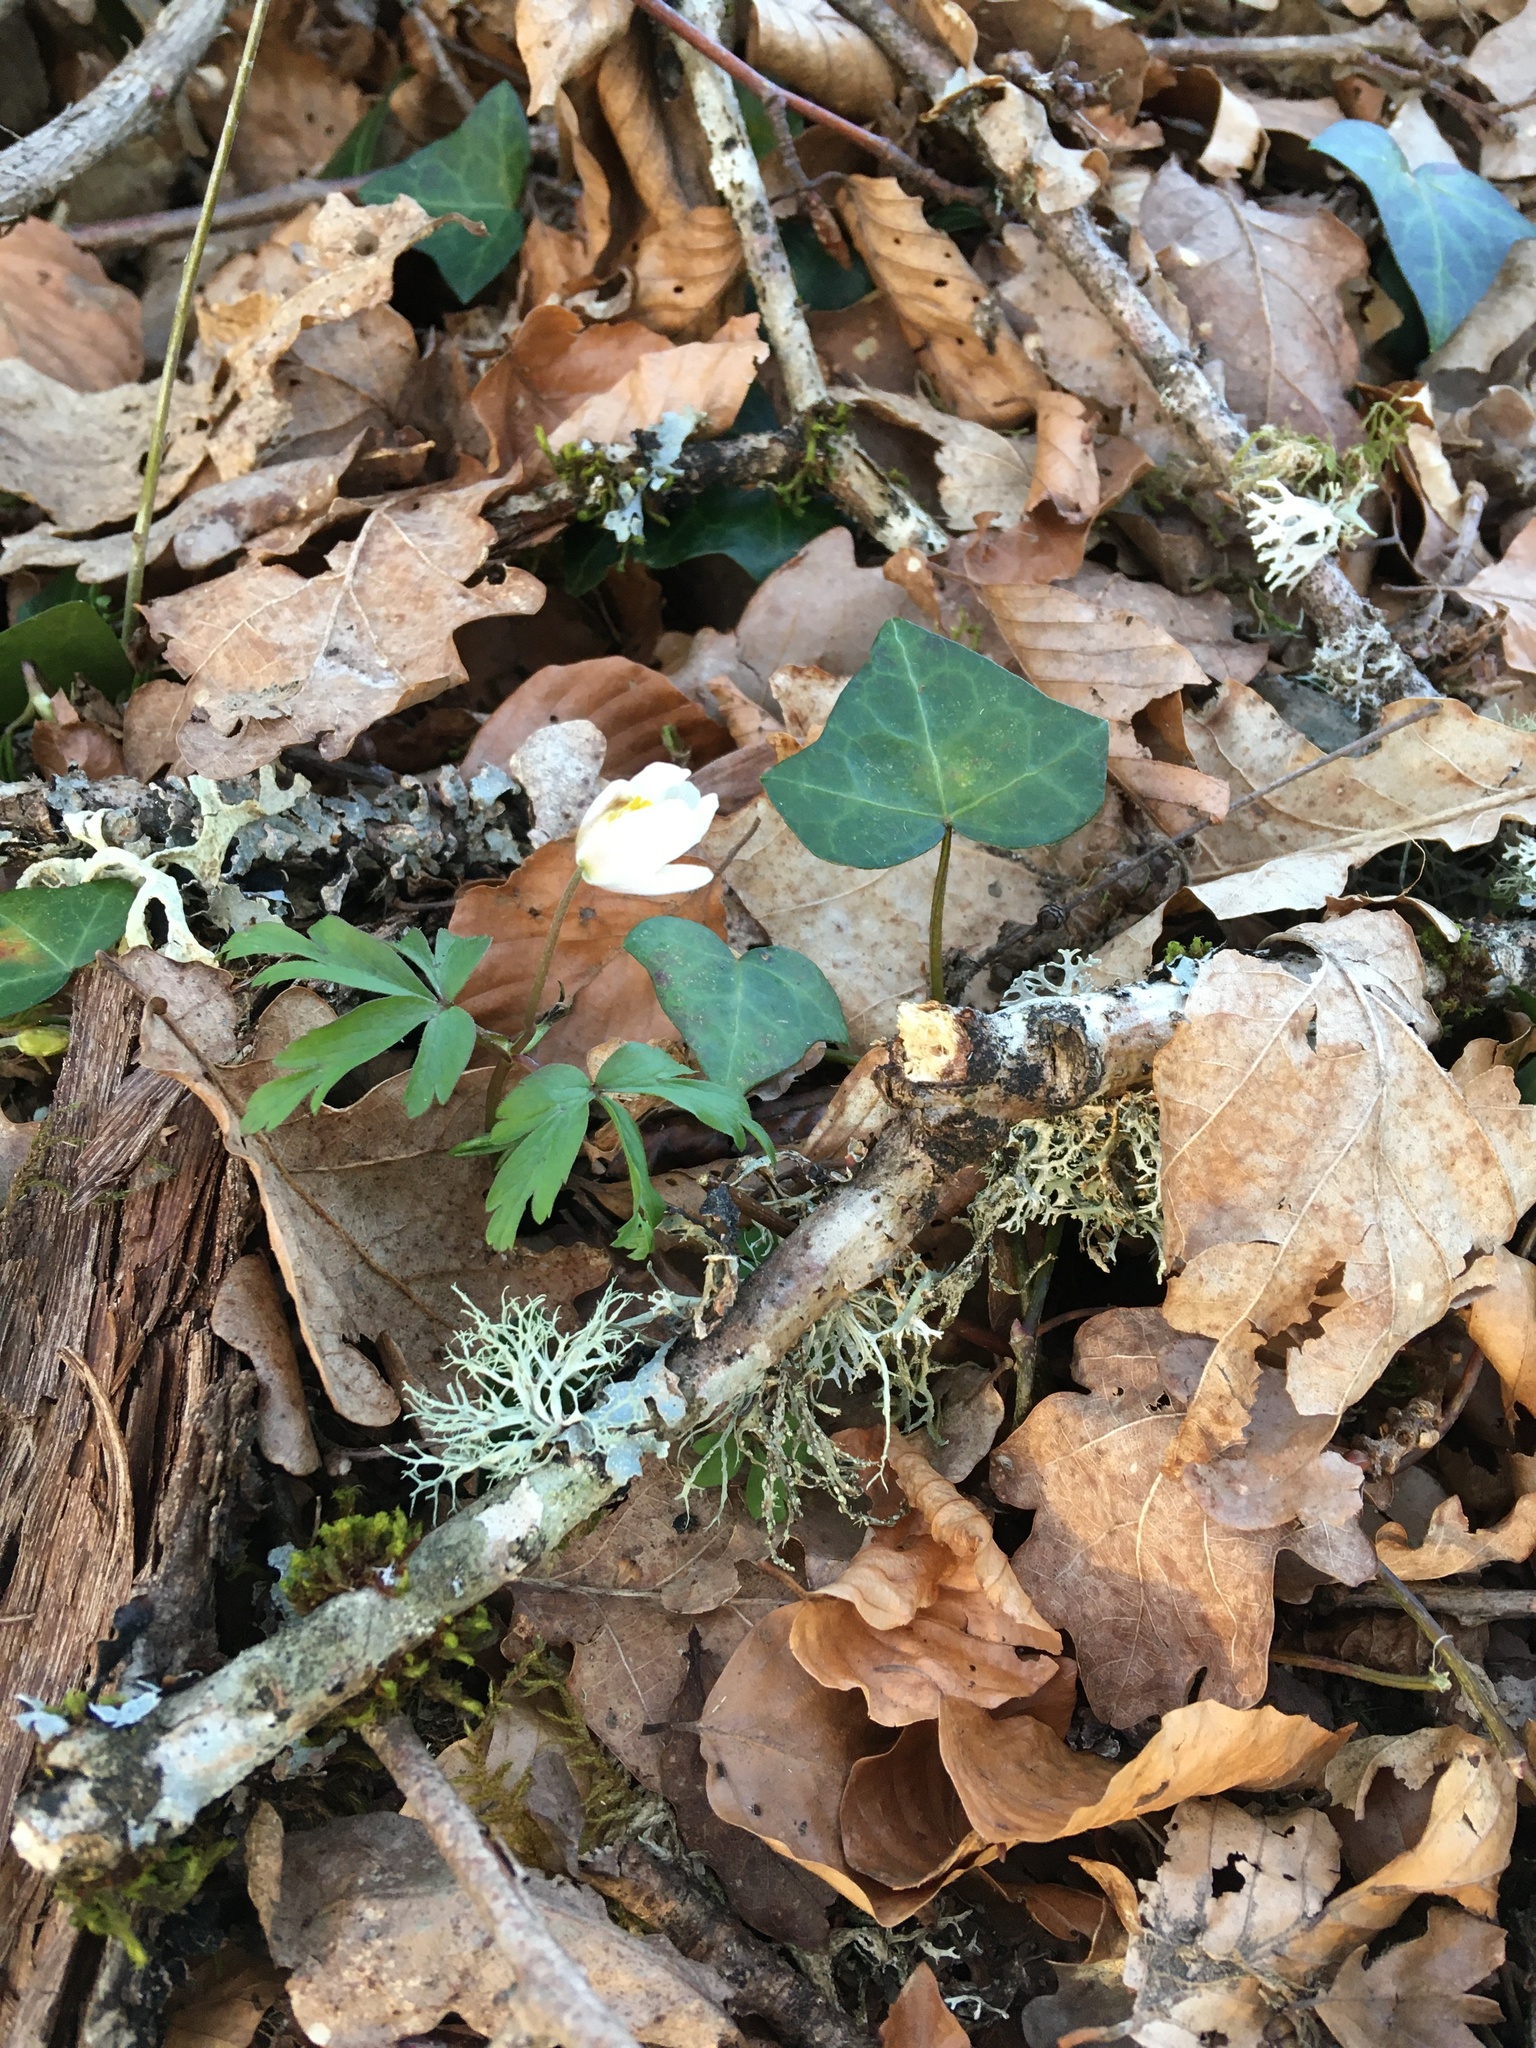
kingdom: Plantae
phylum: Tracheophyta
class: Magnoliopsida
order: Ranunculales
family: Ranunculaceae
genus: Anemone
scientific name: Anemone nemorosa
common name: Wood anemone
